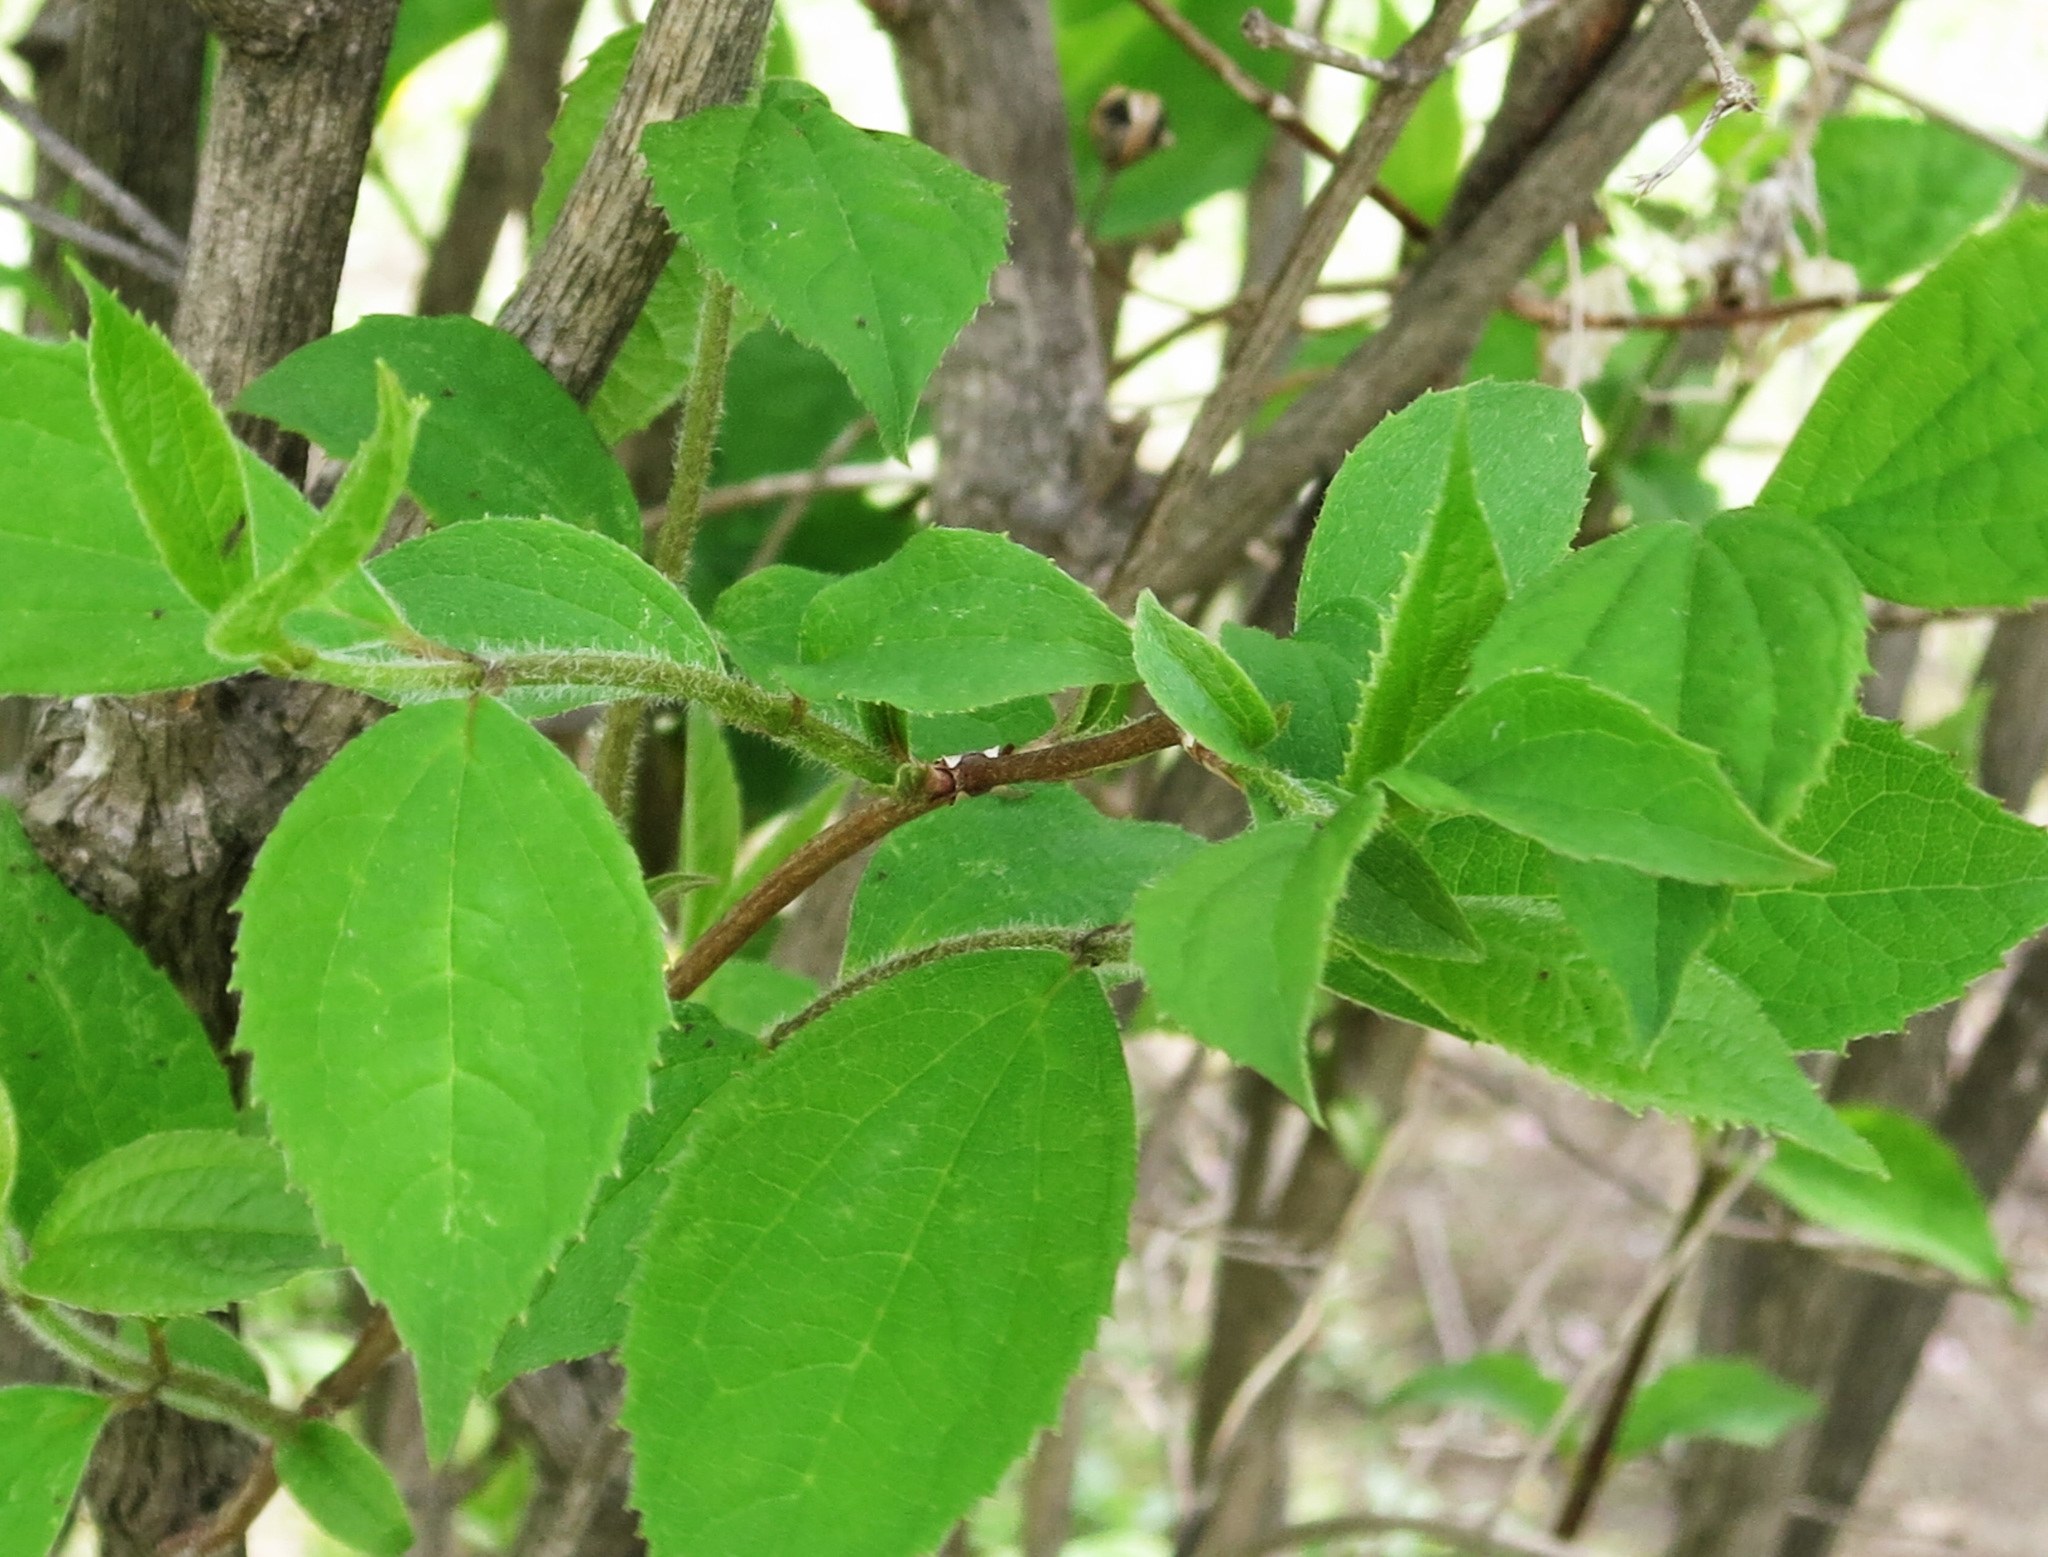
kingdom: Plantae
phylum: Tracheophyta
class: Magnoliopsida
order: Cornales
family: Hydrangeaceae
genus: Philadelphus
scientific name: Philadelphus tenuifolius
